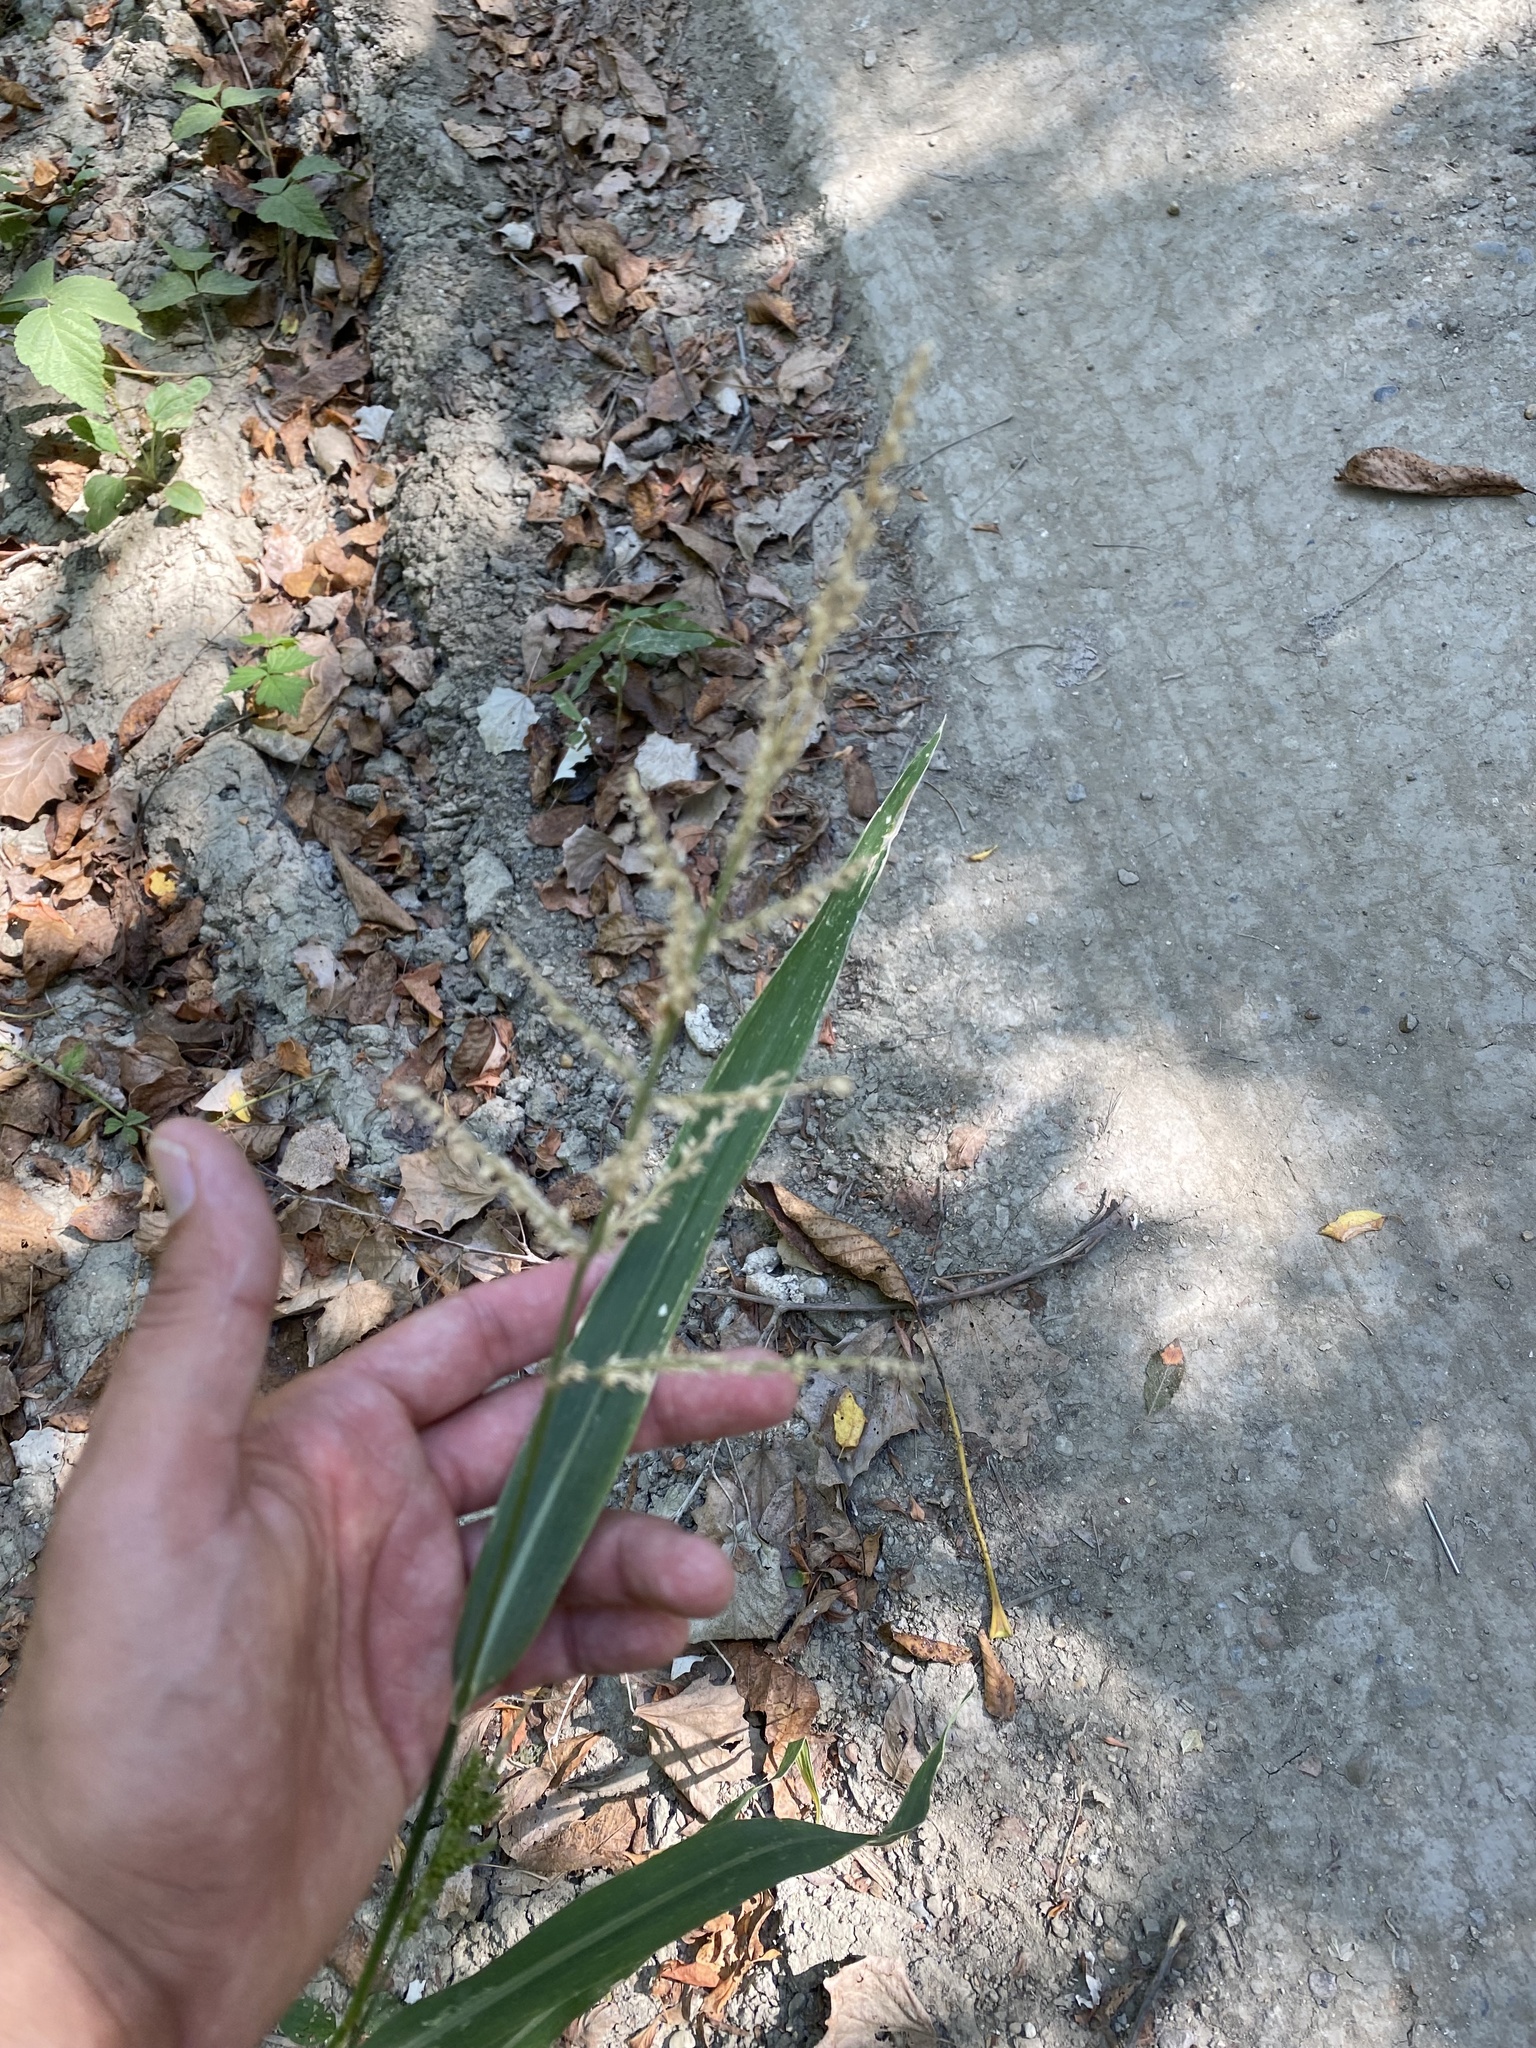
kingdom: Plantae
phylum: Tracheophyta
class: Liliopsida
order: Poales
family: Poaceae
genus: Echinochloa
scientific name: Echinochloa crus-galli
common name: Cockspur
